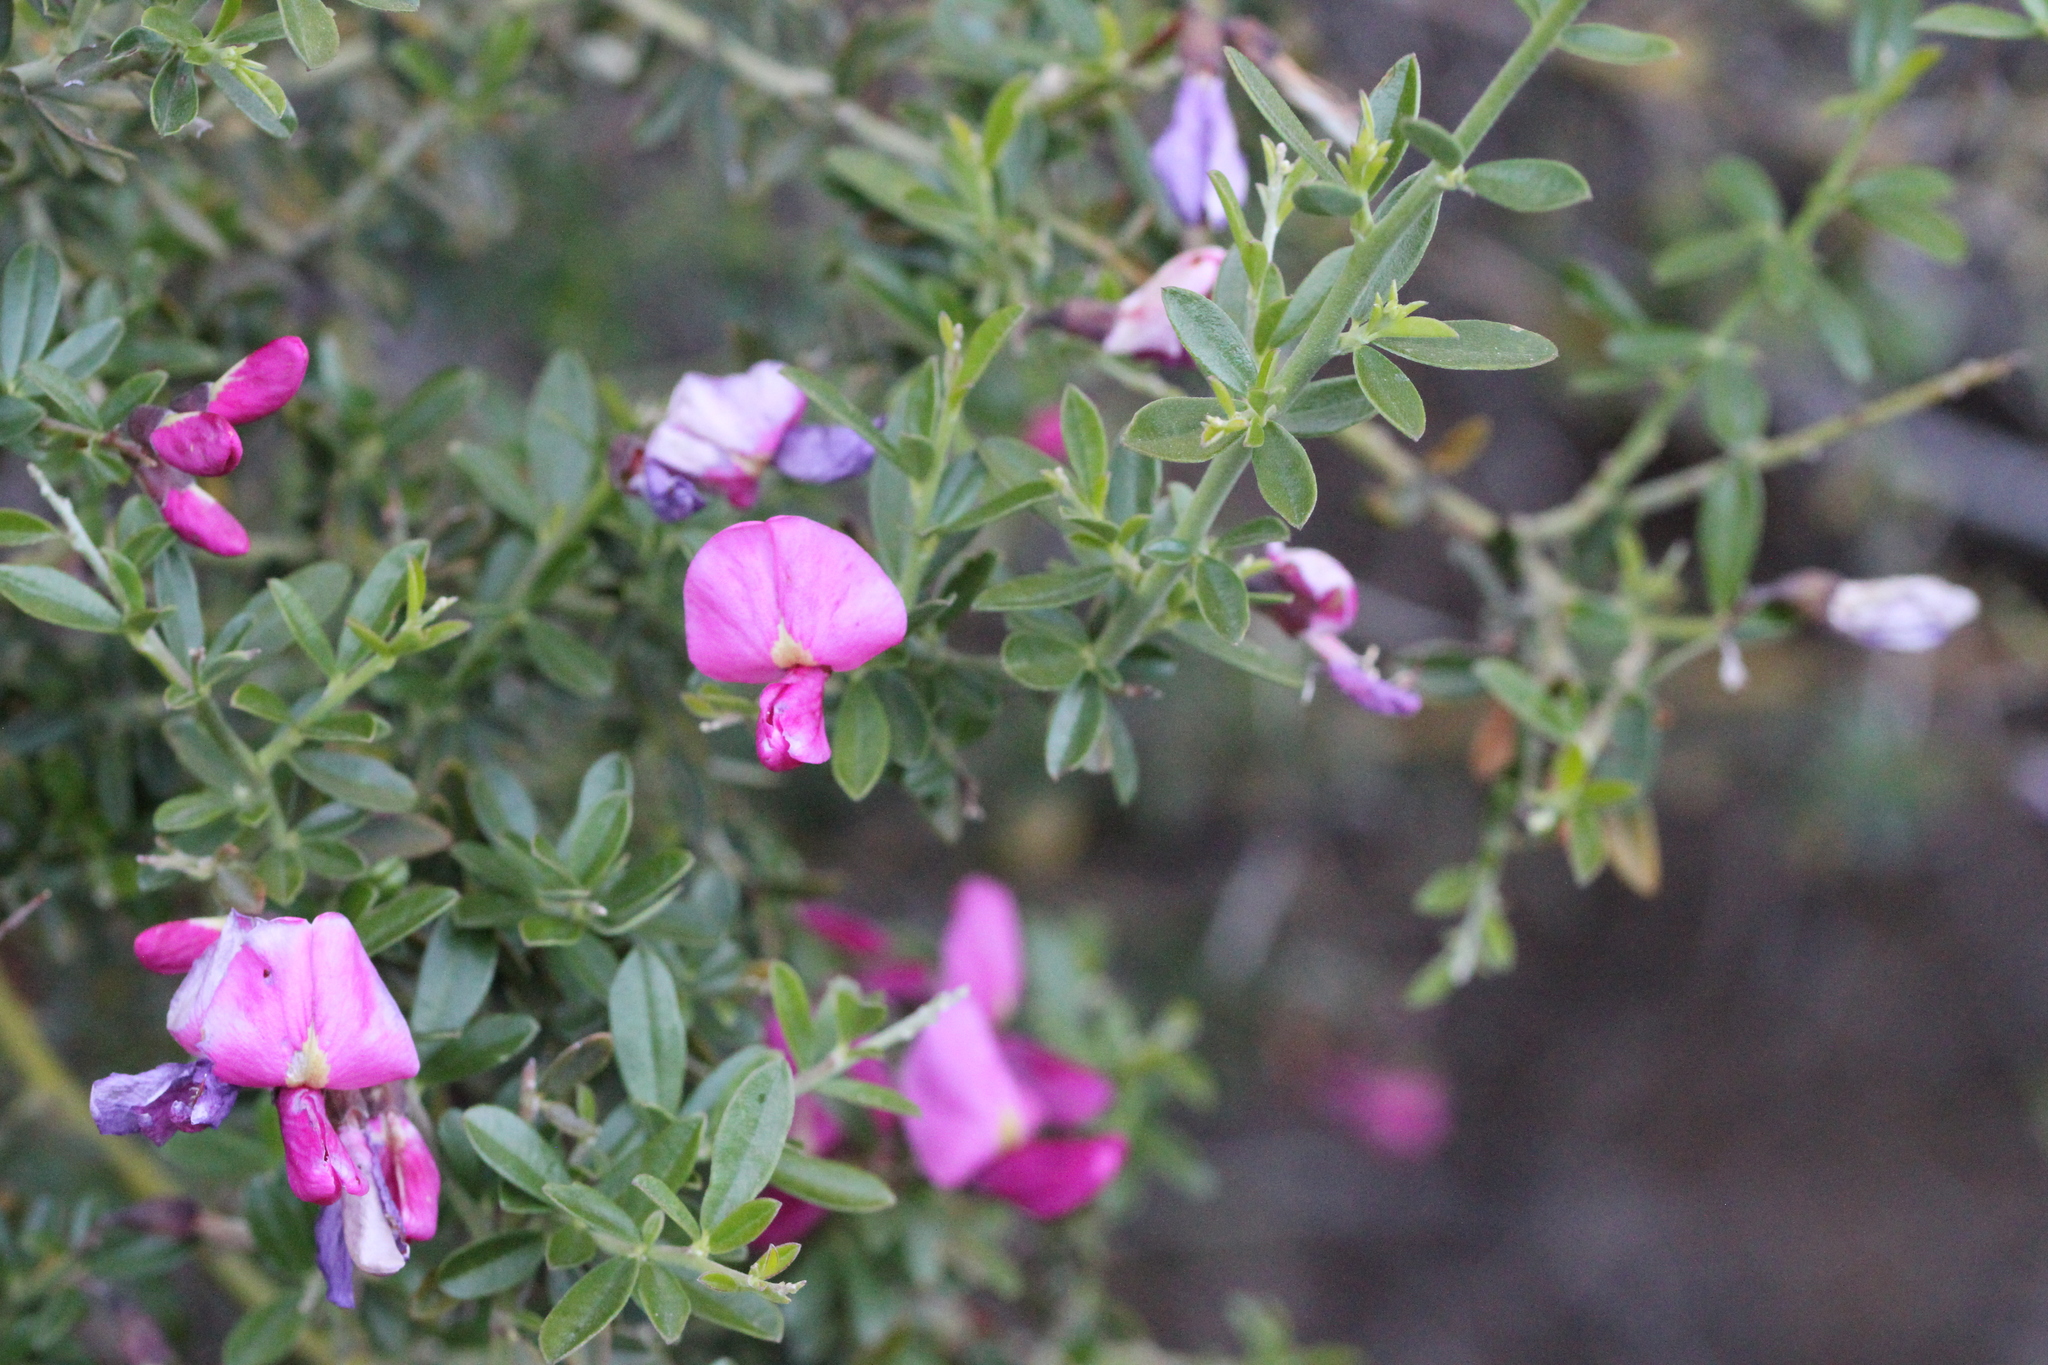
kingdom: Plantae
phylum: Tracheophyta
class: Magnoliopsida
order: Fabales
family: Fabaceae
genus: Pickeringia
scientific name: Pickeringia montana
